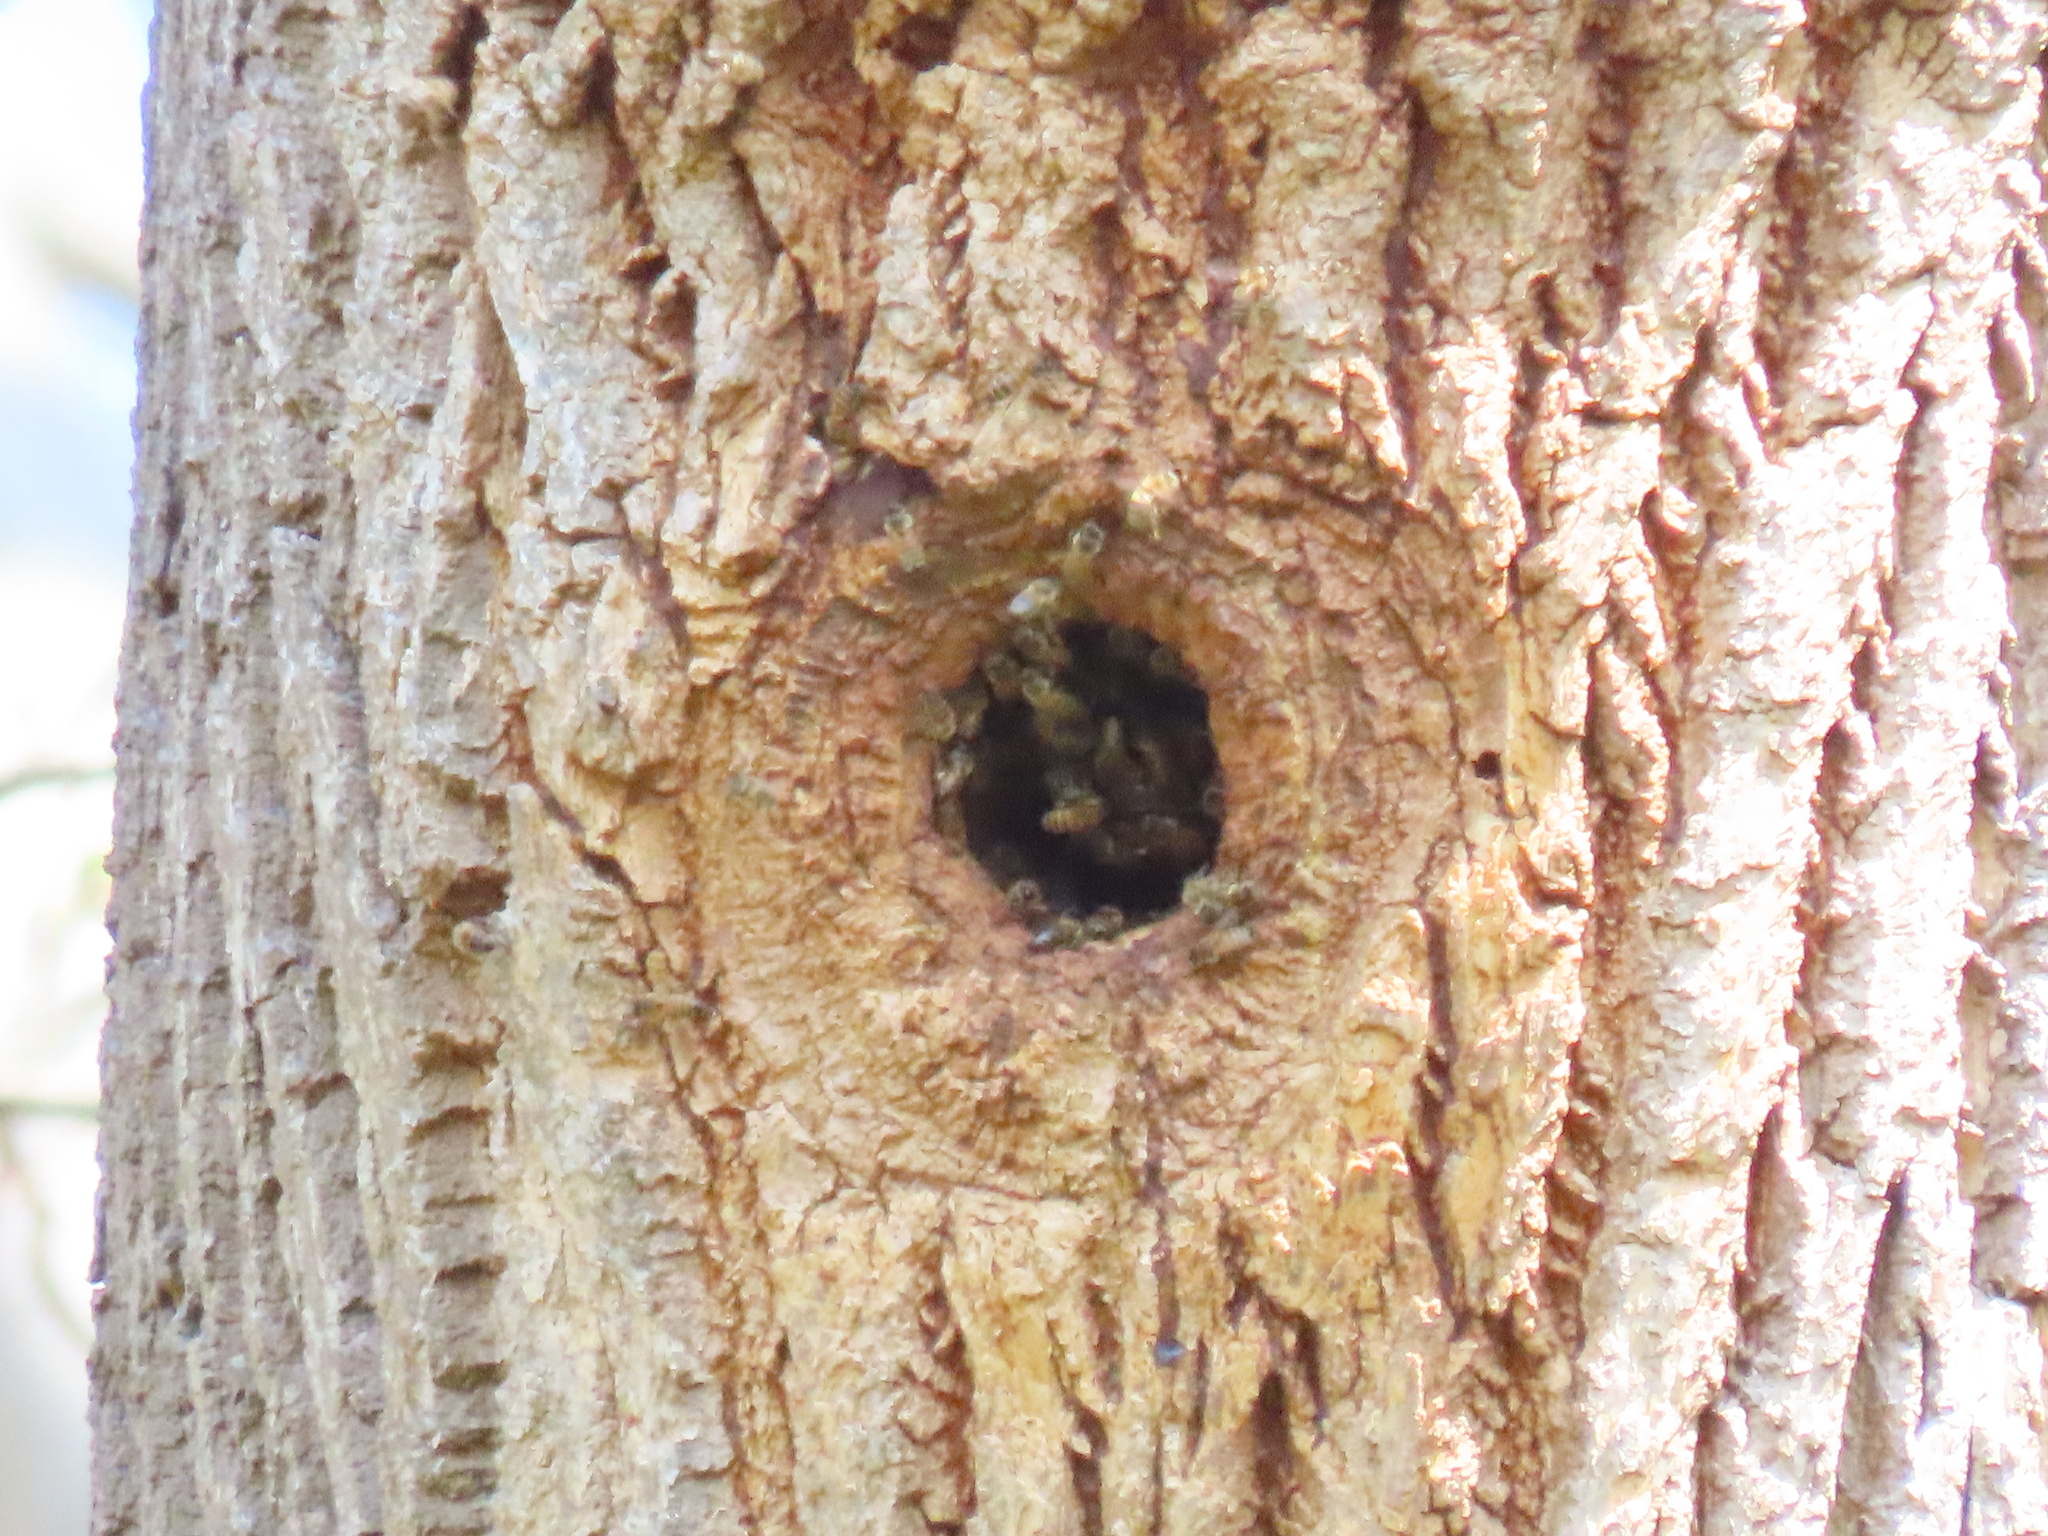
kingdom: Animalia
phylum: Arthropoda
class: Insecta
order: Hymenoptera
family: Apidae
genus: Apis
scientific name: Apis mellifera
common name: Honey bee
